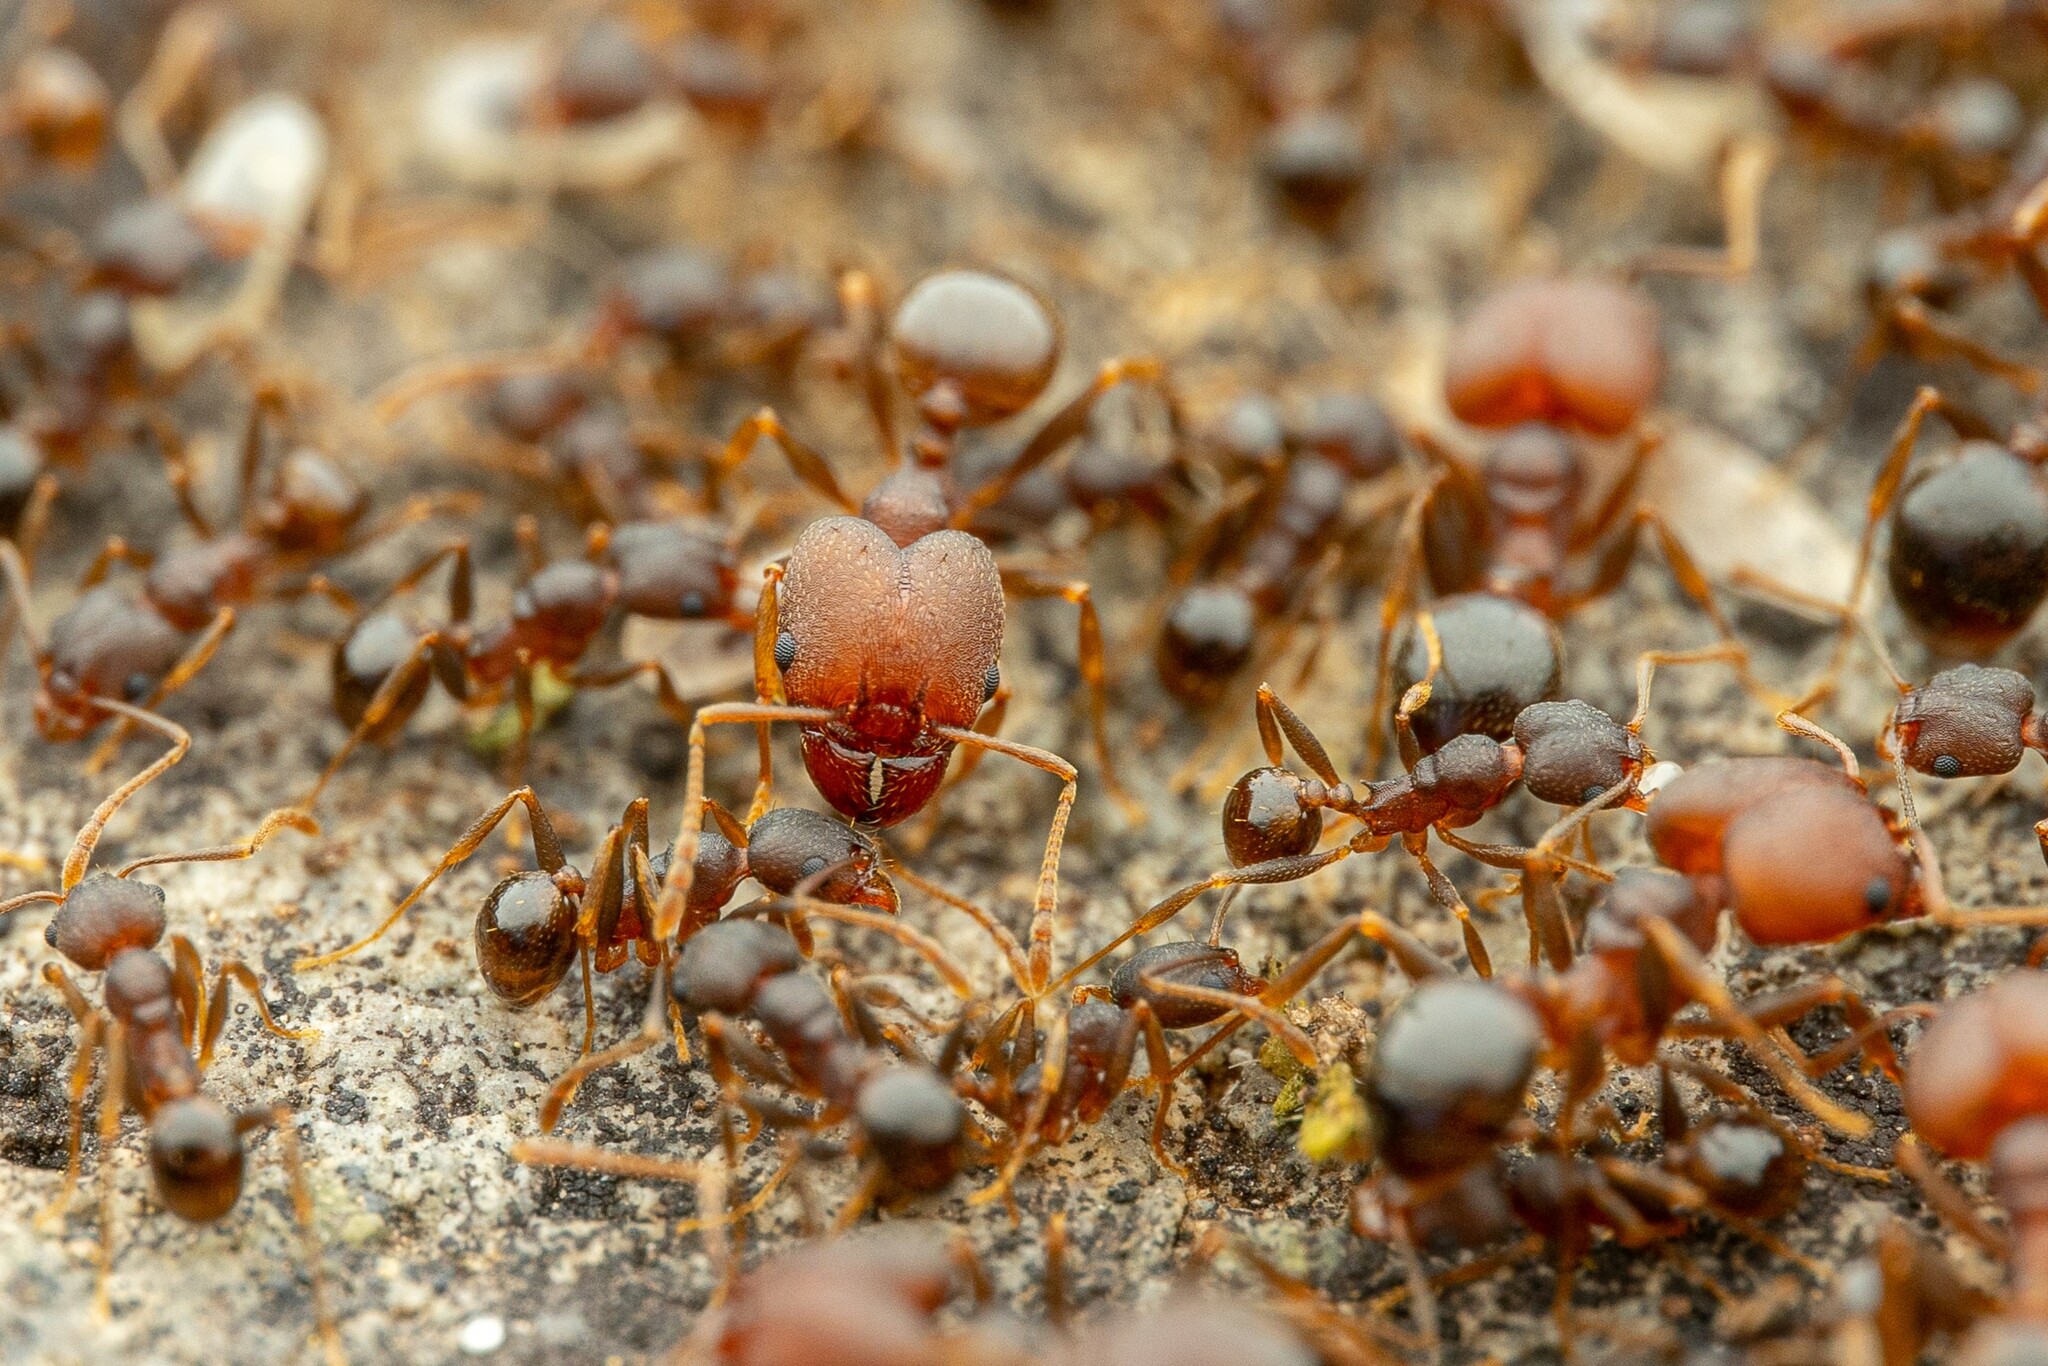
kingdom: Animalia
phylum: Arthropoda
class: Insecta
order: Hymenoptera
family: Formicidae
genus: Pheidole
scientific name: Pheidole
